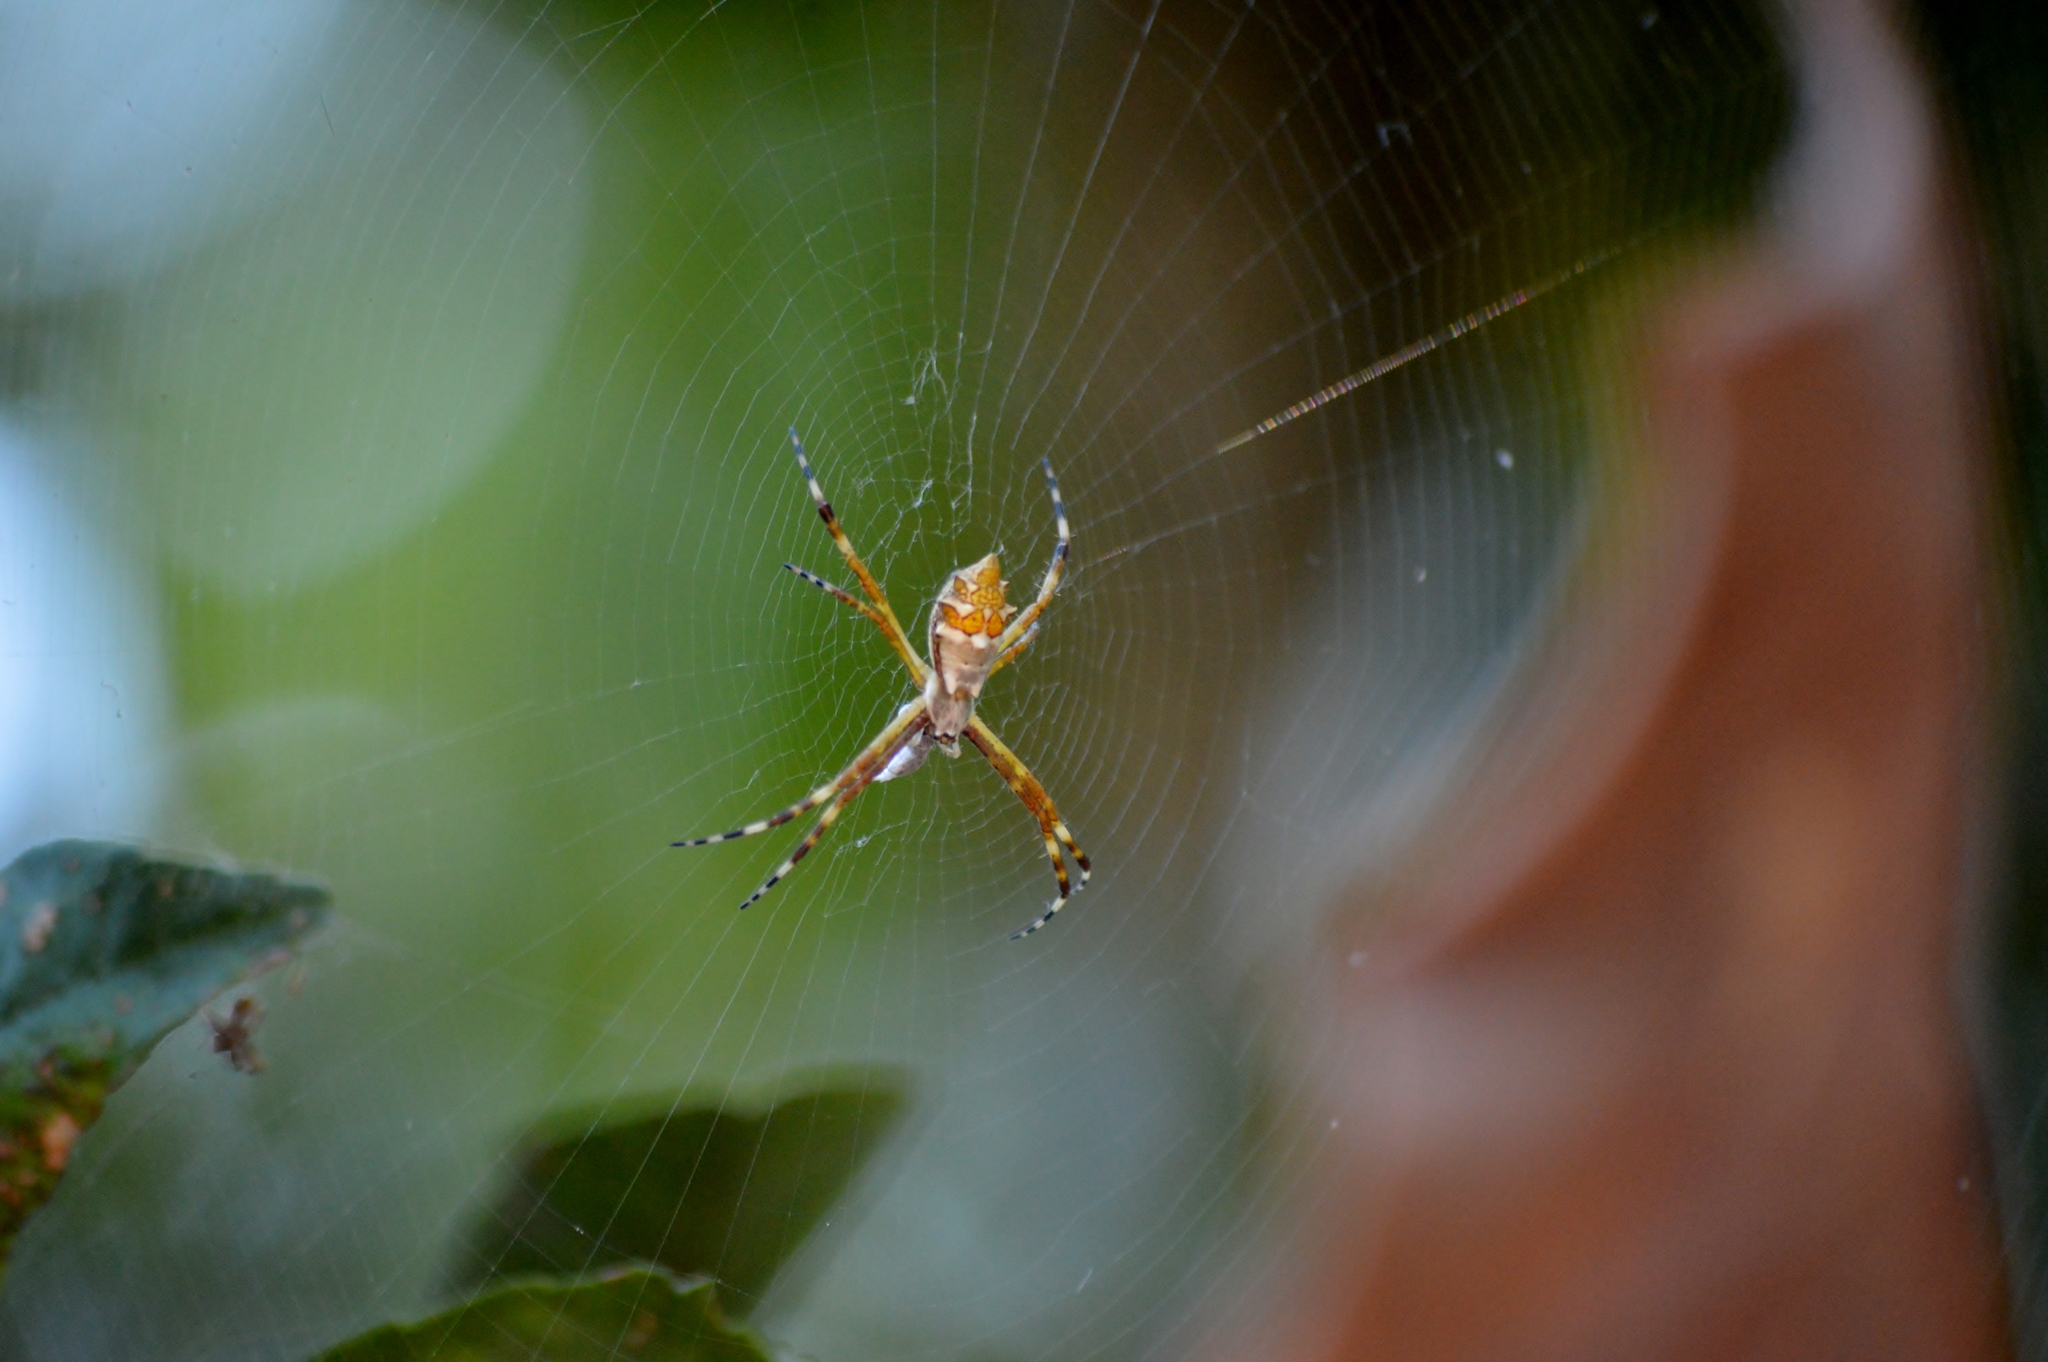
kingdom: Animalia
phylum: Arthropoda
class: Arachnida
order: Araneae
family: Araneidae
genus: Argiope
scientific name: Argiope argentata
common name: Orb weavers
